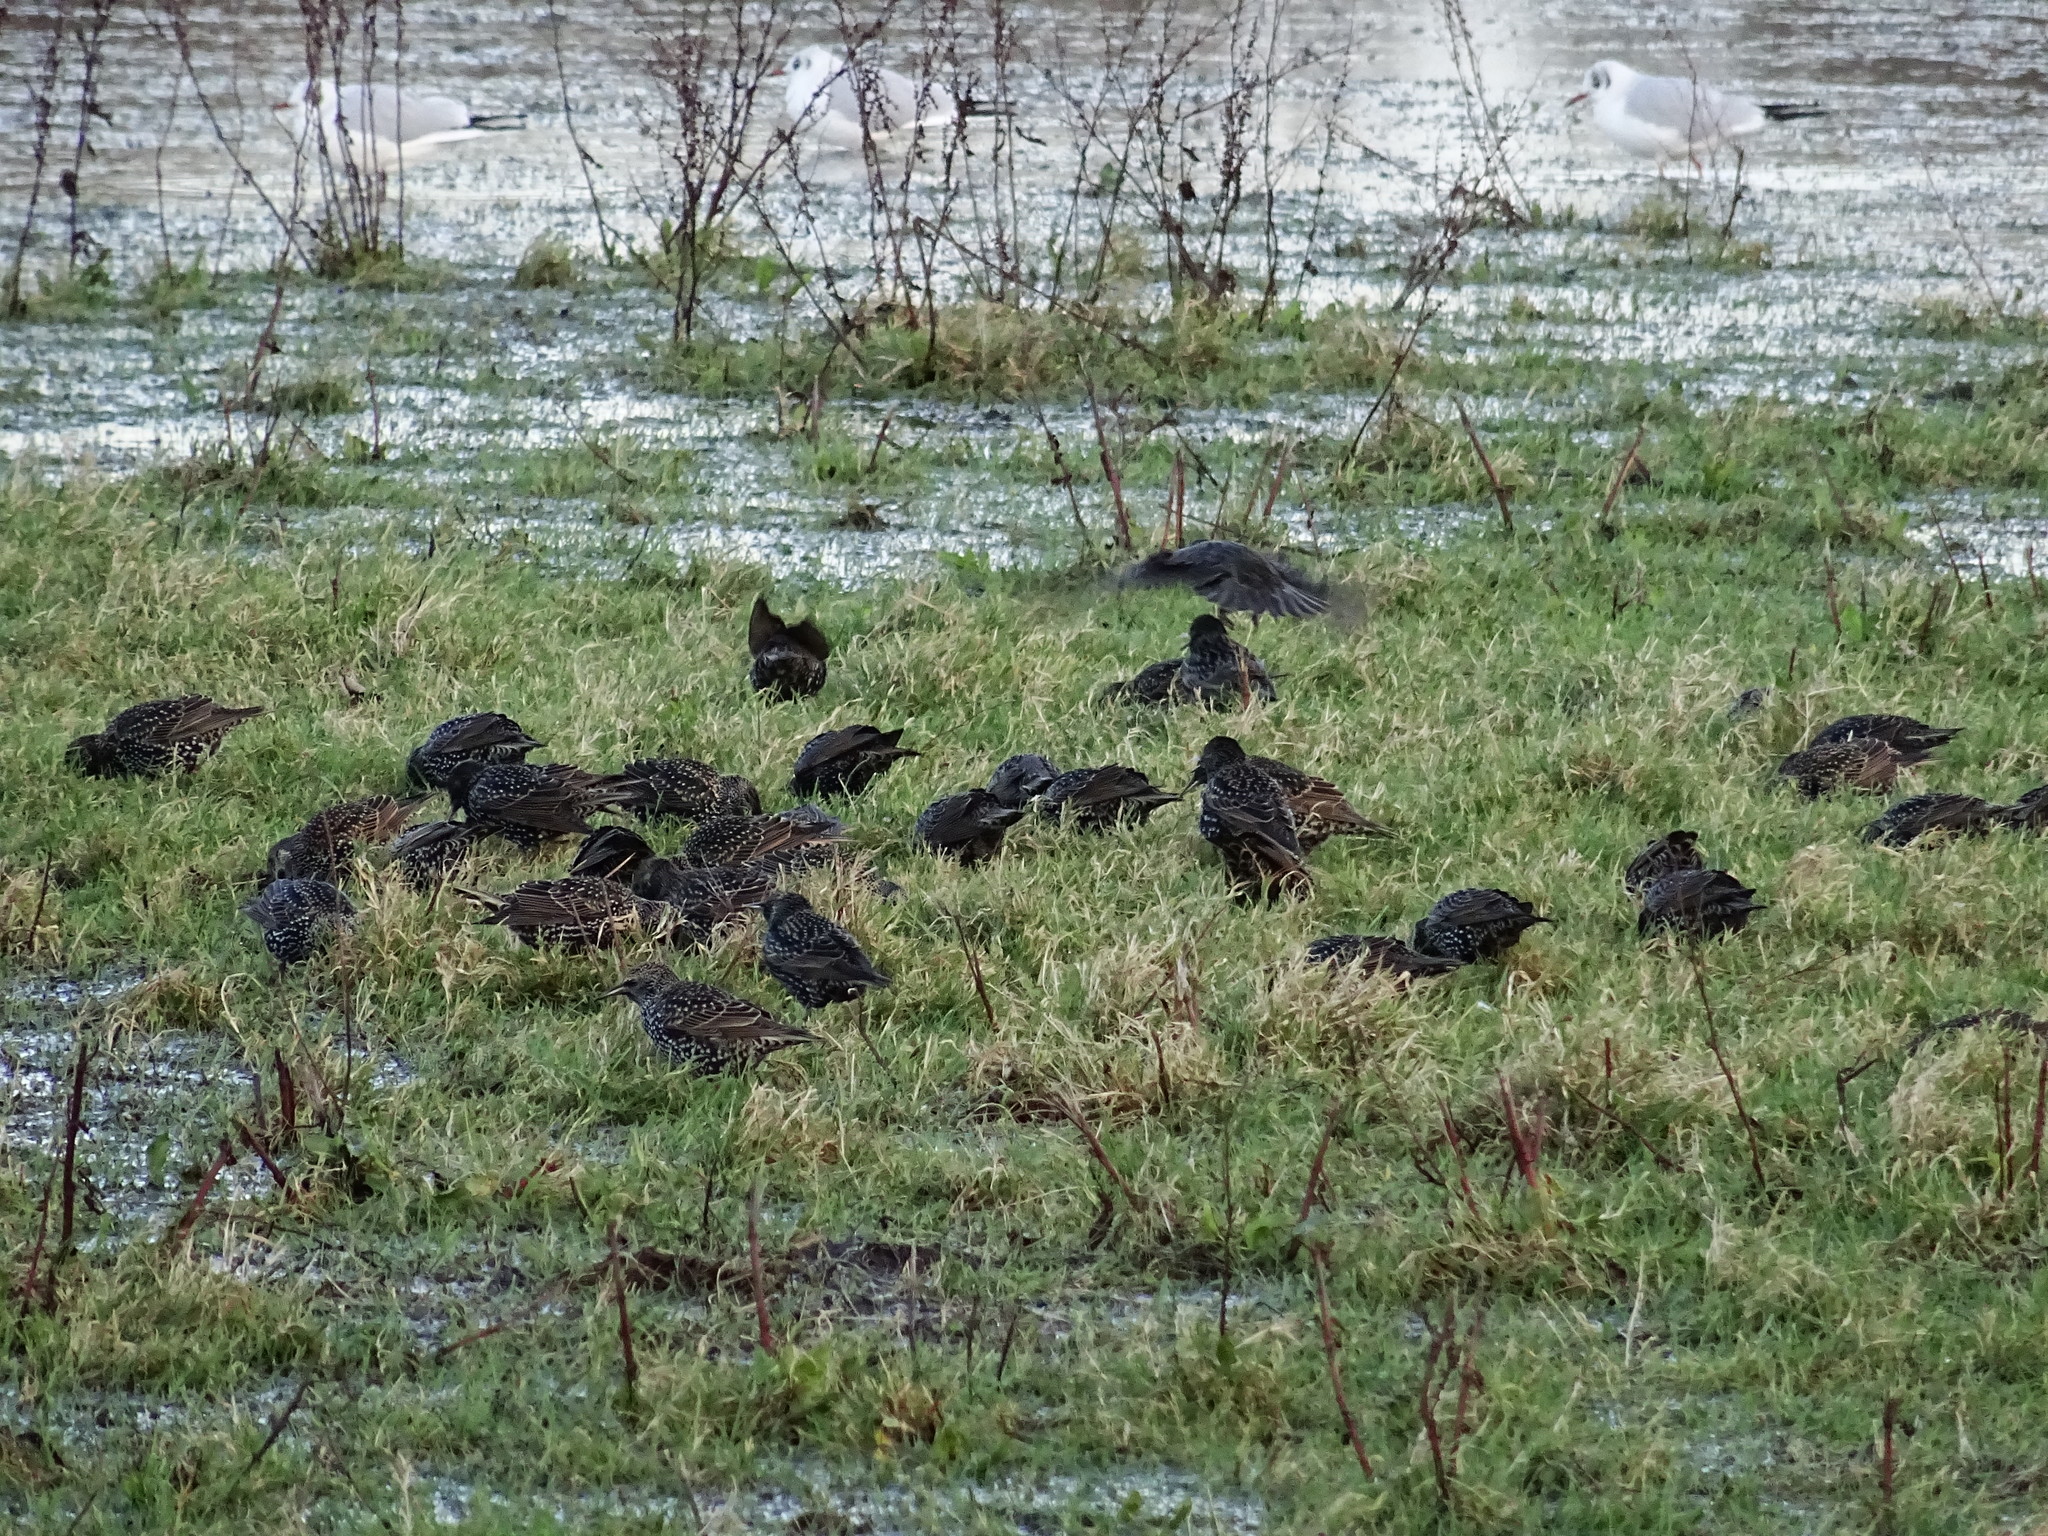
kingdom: Animalia
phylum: Chordata
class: Aves
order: Passeriformes
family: Sturnidae
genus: Sturnus
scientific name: Sturnus vulgaris
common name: Common starling
